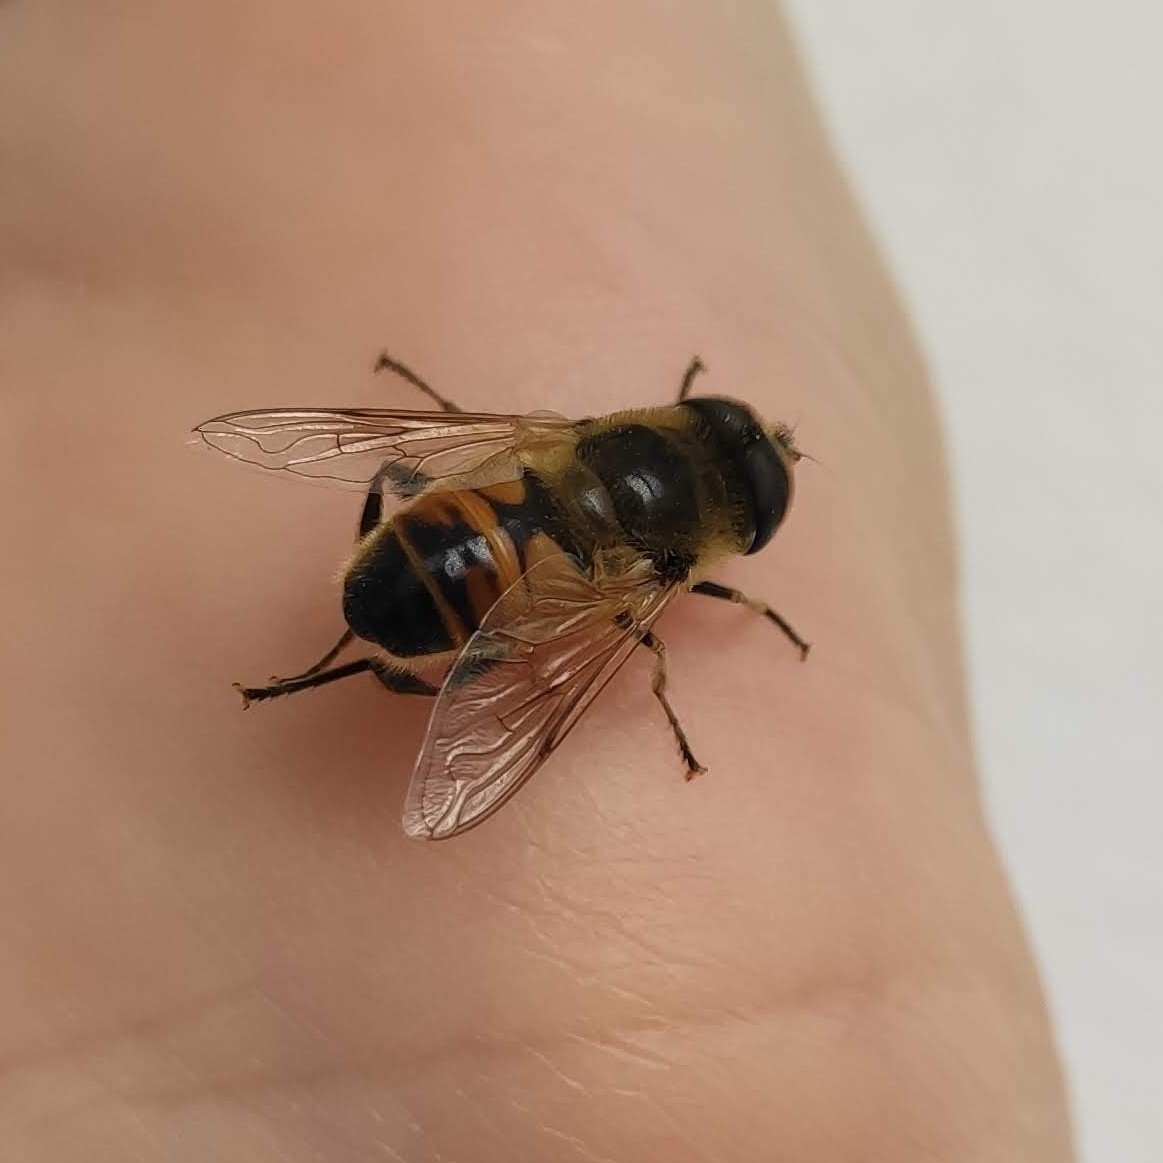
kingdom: Animalia
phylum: Arthropoda
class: Insecta
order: Diptera
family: Syrphidae
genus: Eristalis
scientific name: Eristalis tenax
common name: Drone fly
